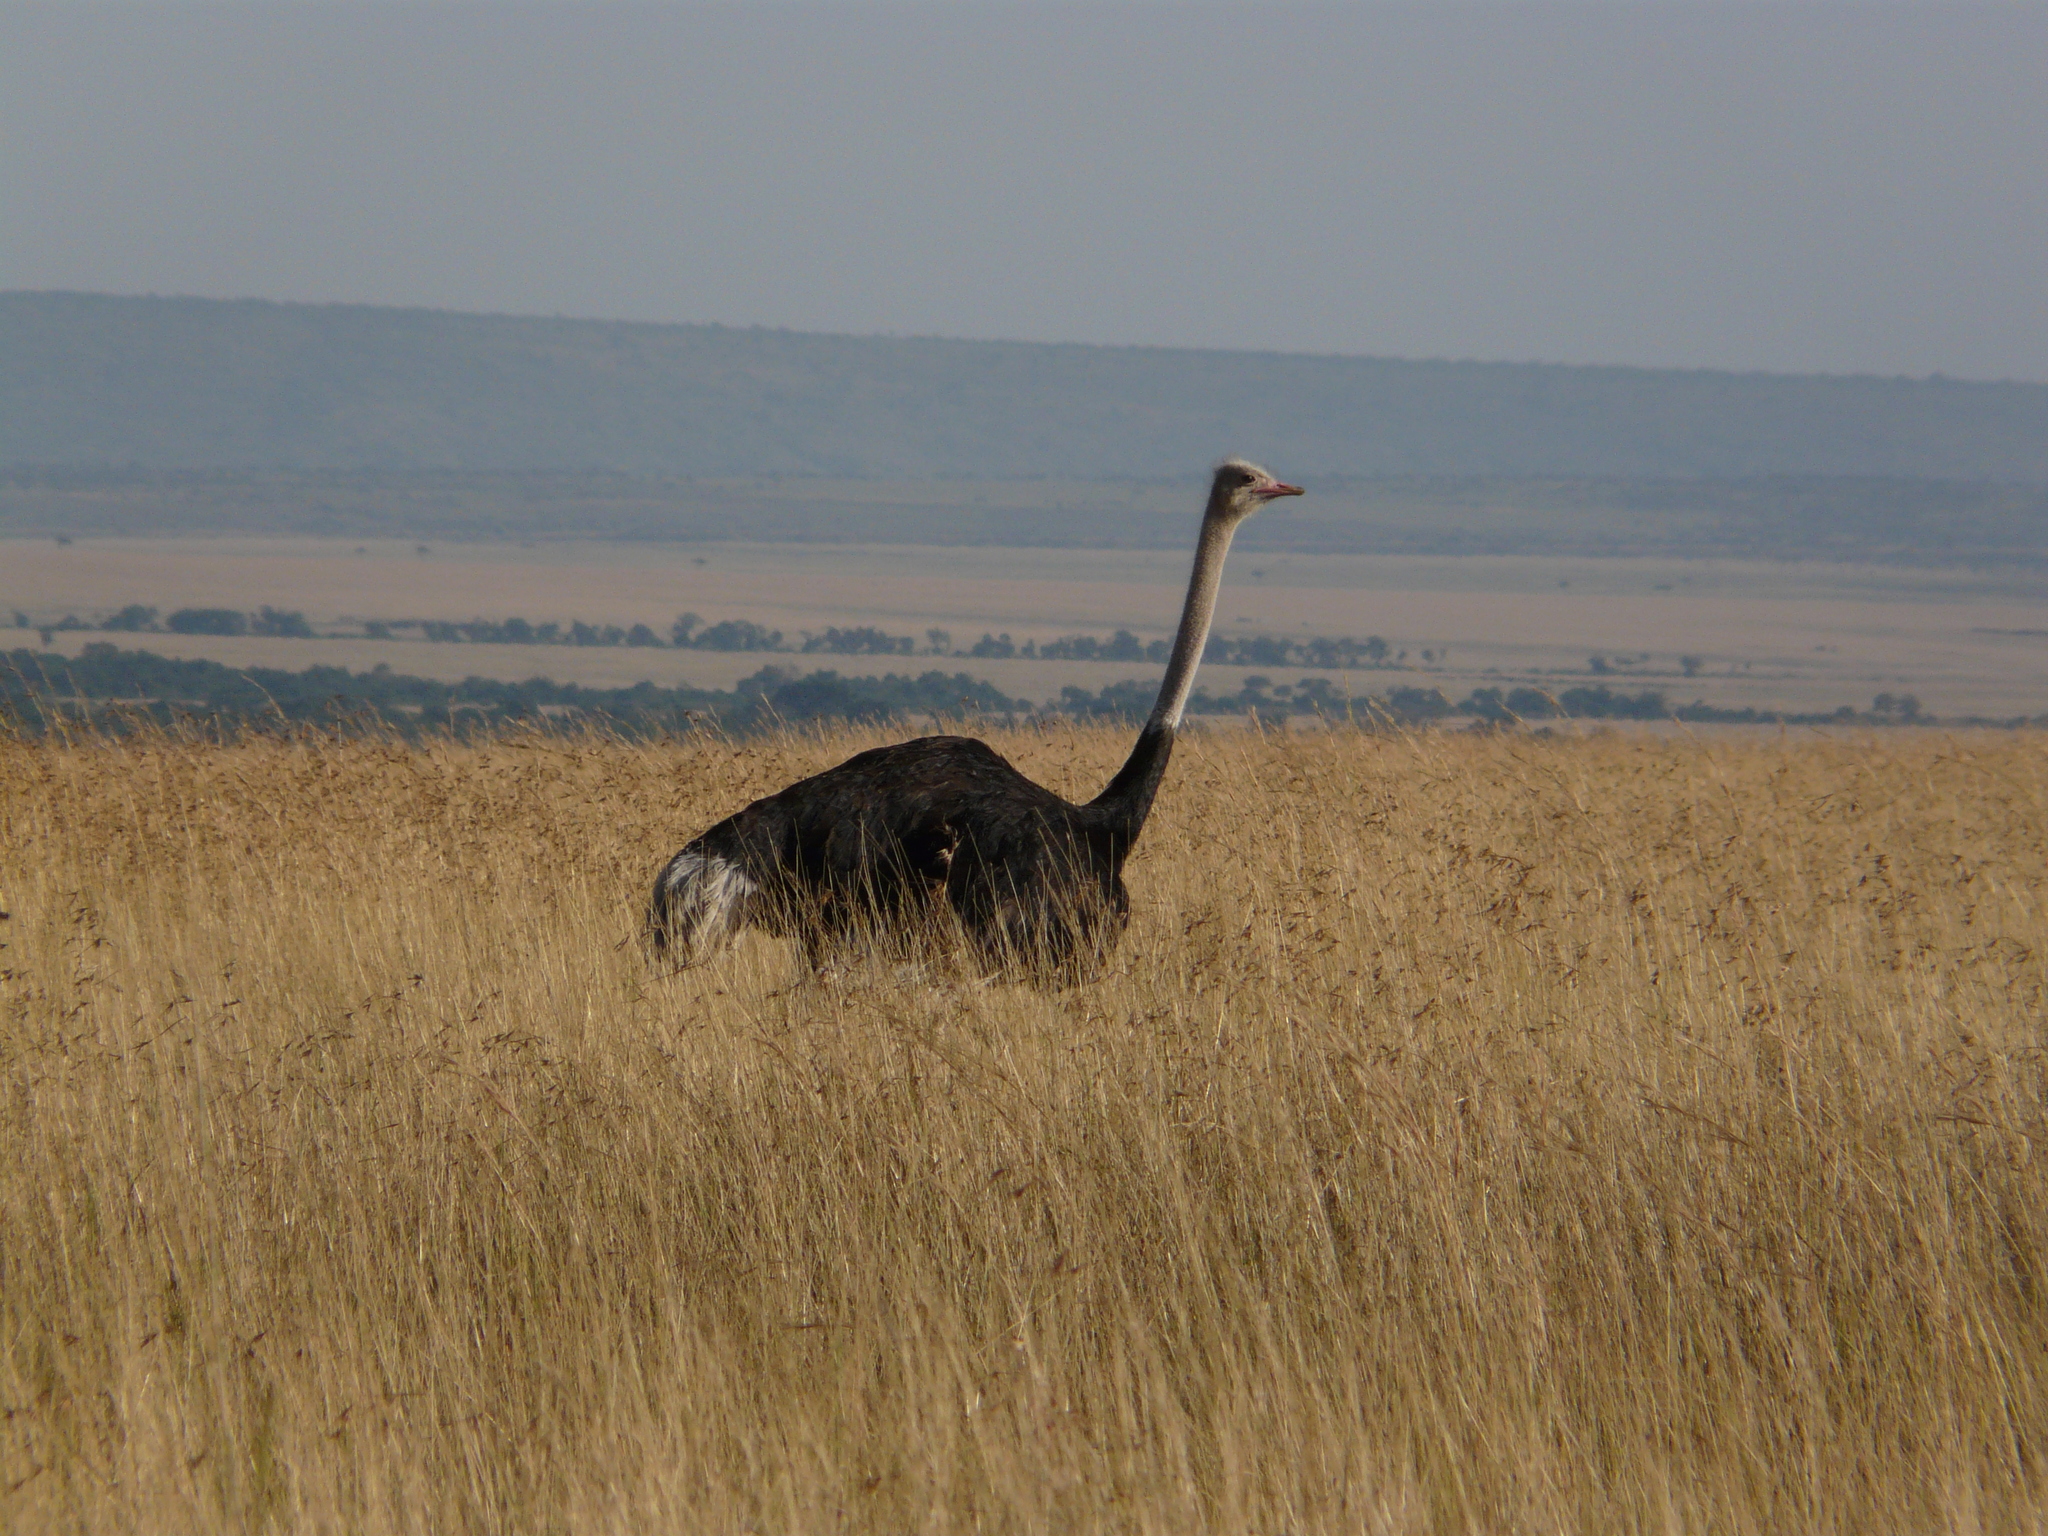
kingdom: Animalia
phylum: Chordata
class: Aves
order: Struthioniformes
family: Struthionidae
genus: Struthio
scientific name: Struthio camelus
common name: Common ostrich
